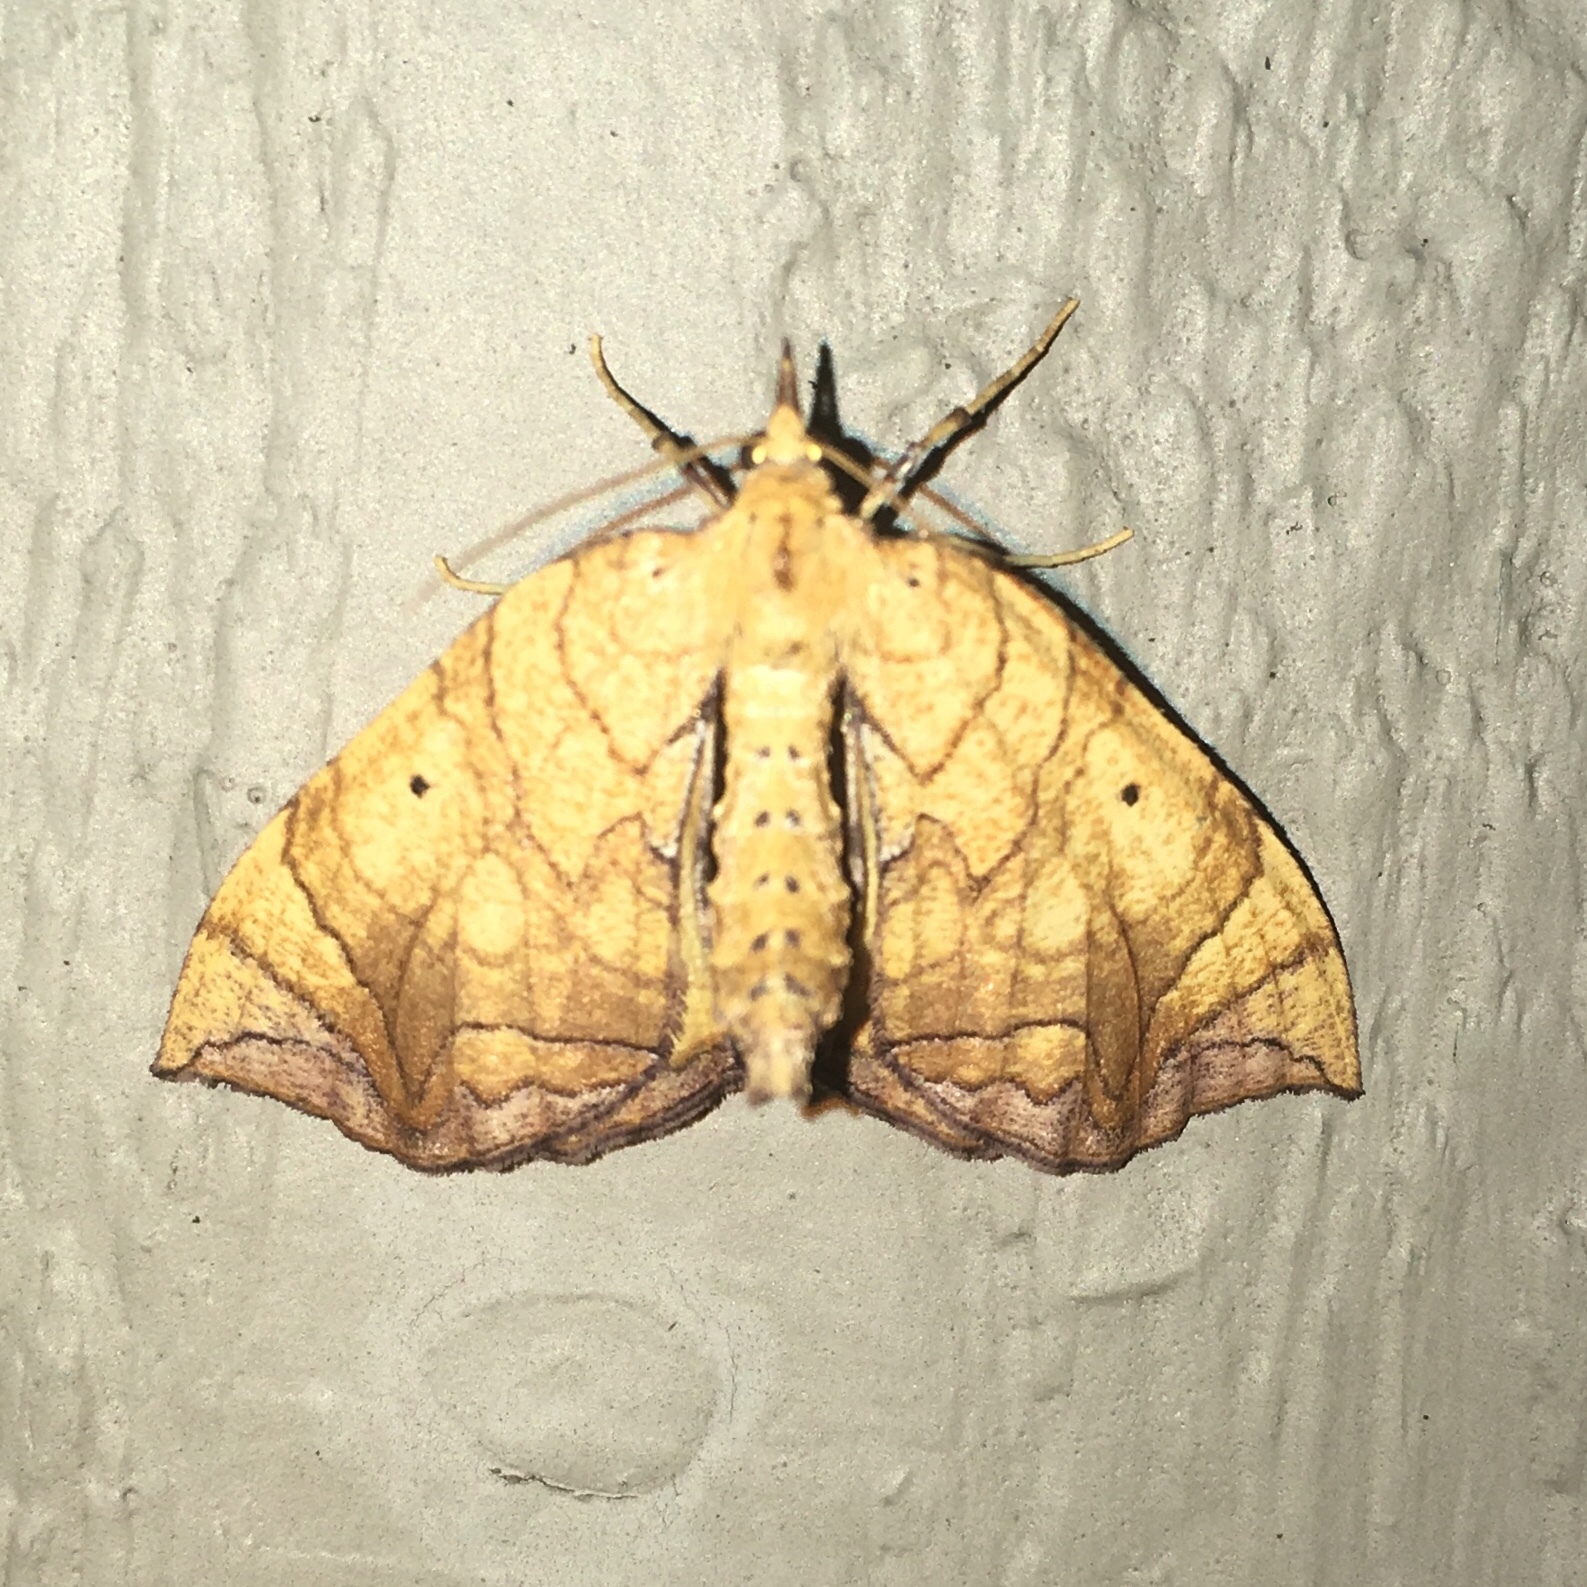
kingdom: Animalia
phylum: Arthropoda
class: Insecta
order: Lepidoptera
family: Geometridae
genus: Eulithis
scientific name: Eulithis
